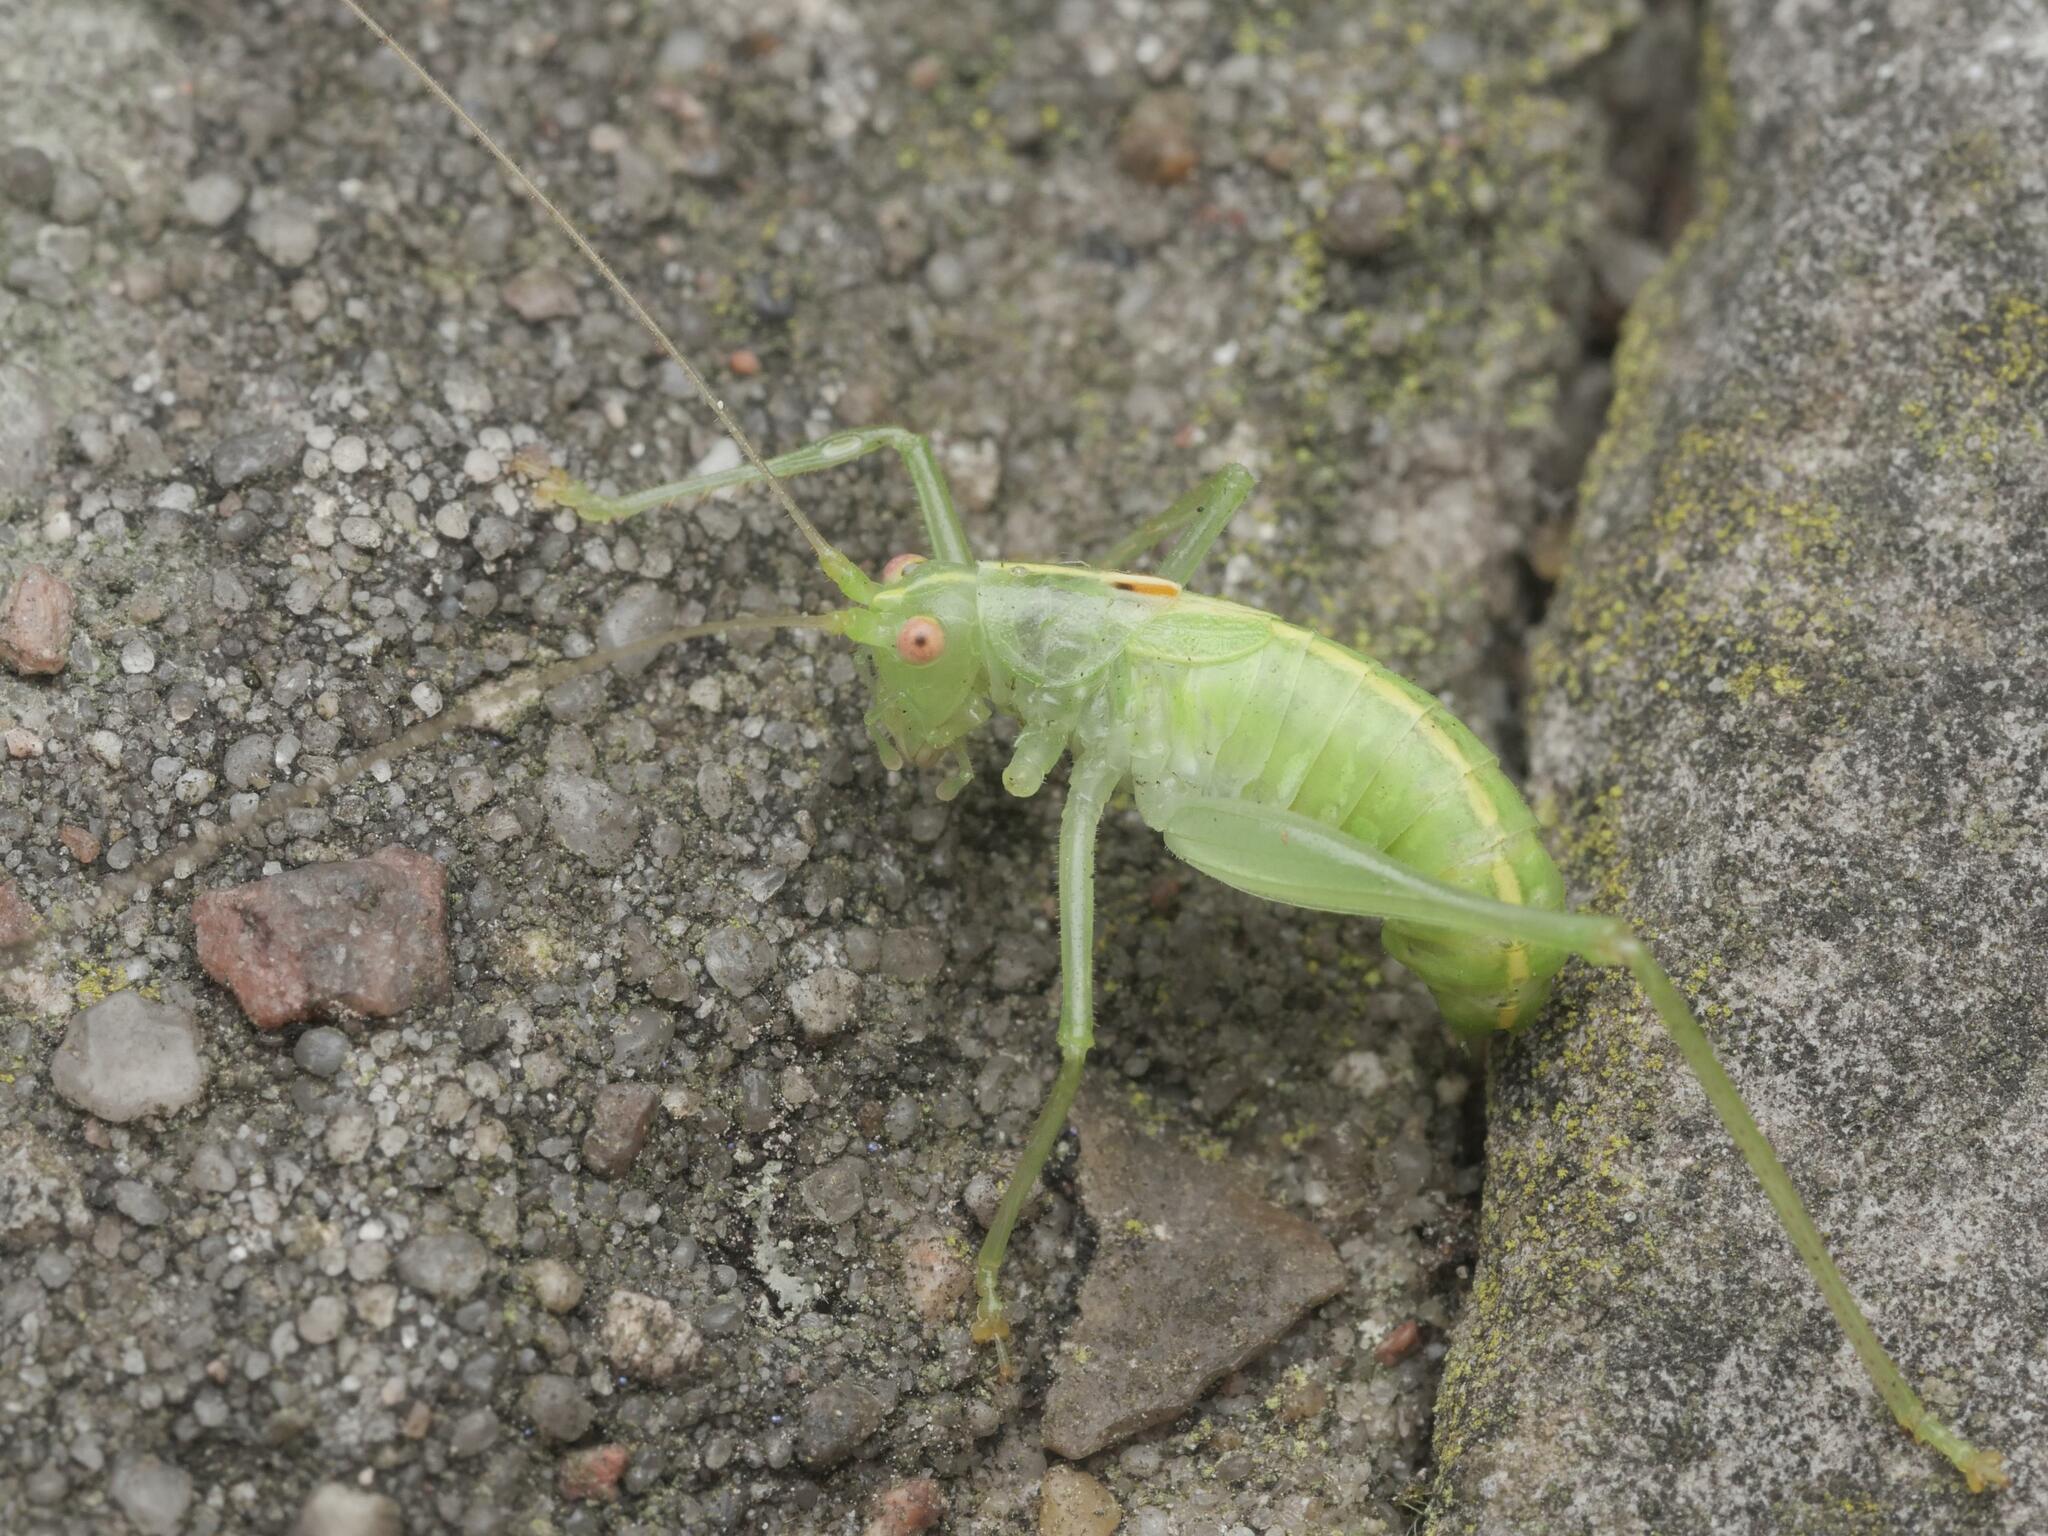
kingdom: Animalia
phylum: Arthropoda
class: Insecta
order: Orthoptera
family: Tettigoniidae
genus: Meconema
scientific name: Meconema meridionale
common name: Southern oak bush-cricket
